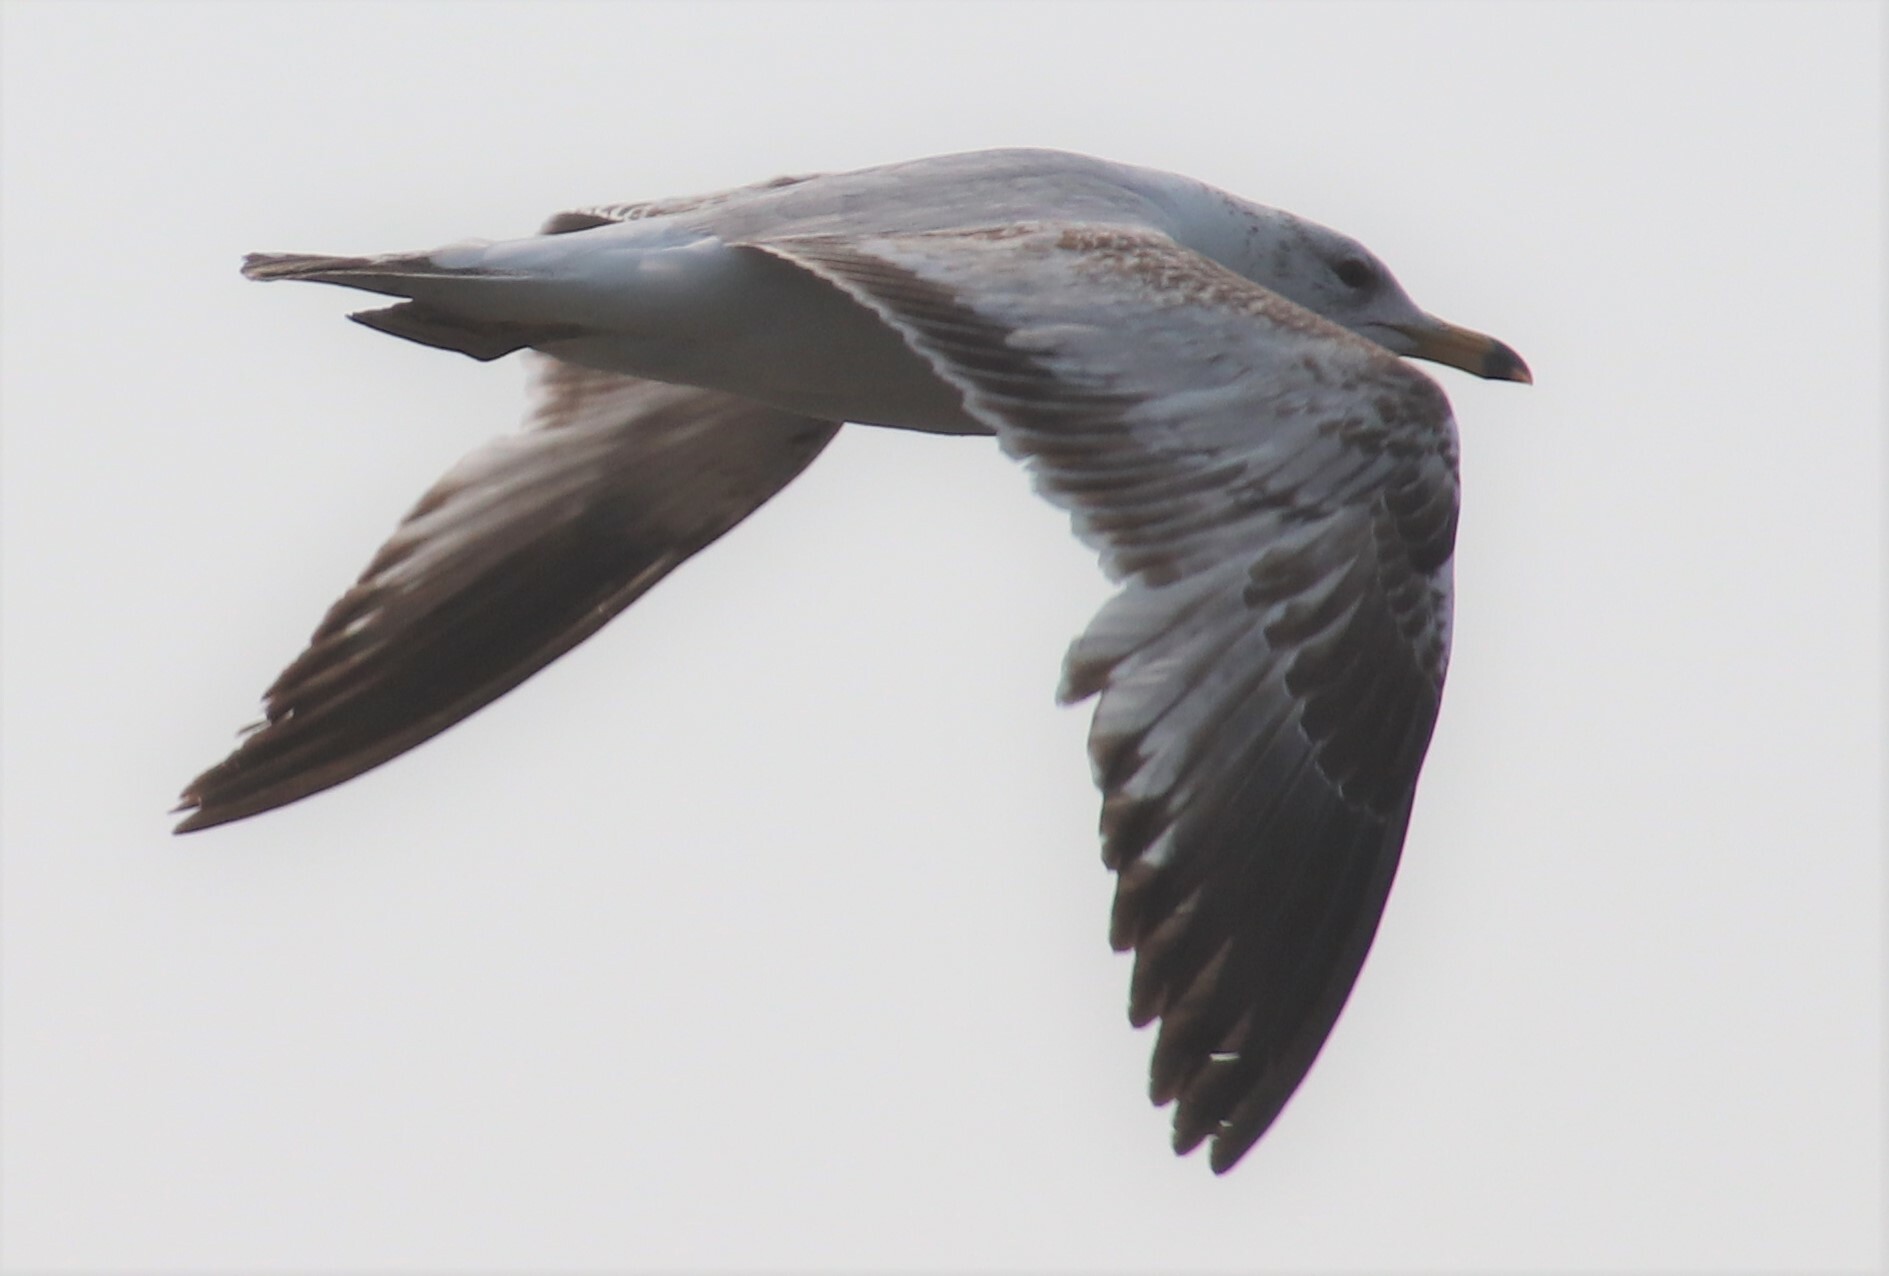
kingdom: Animalia
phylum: Chordata
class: Aves
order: Charadriiformes
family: Laridae
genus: Larus
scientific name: Larus delawarensis
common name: Ring-billed gull
